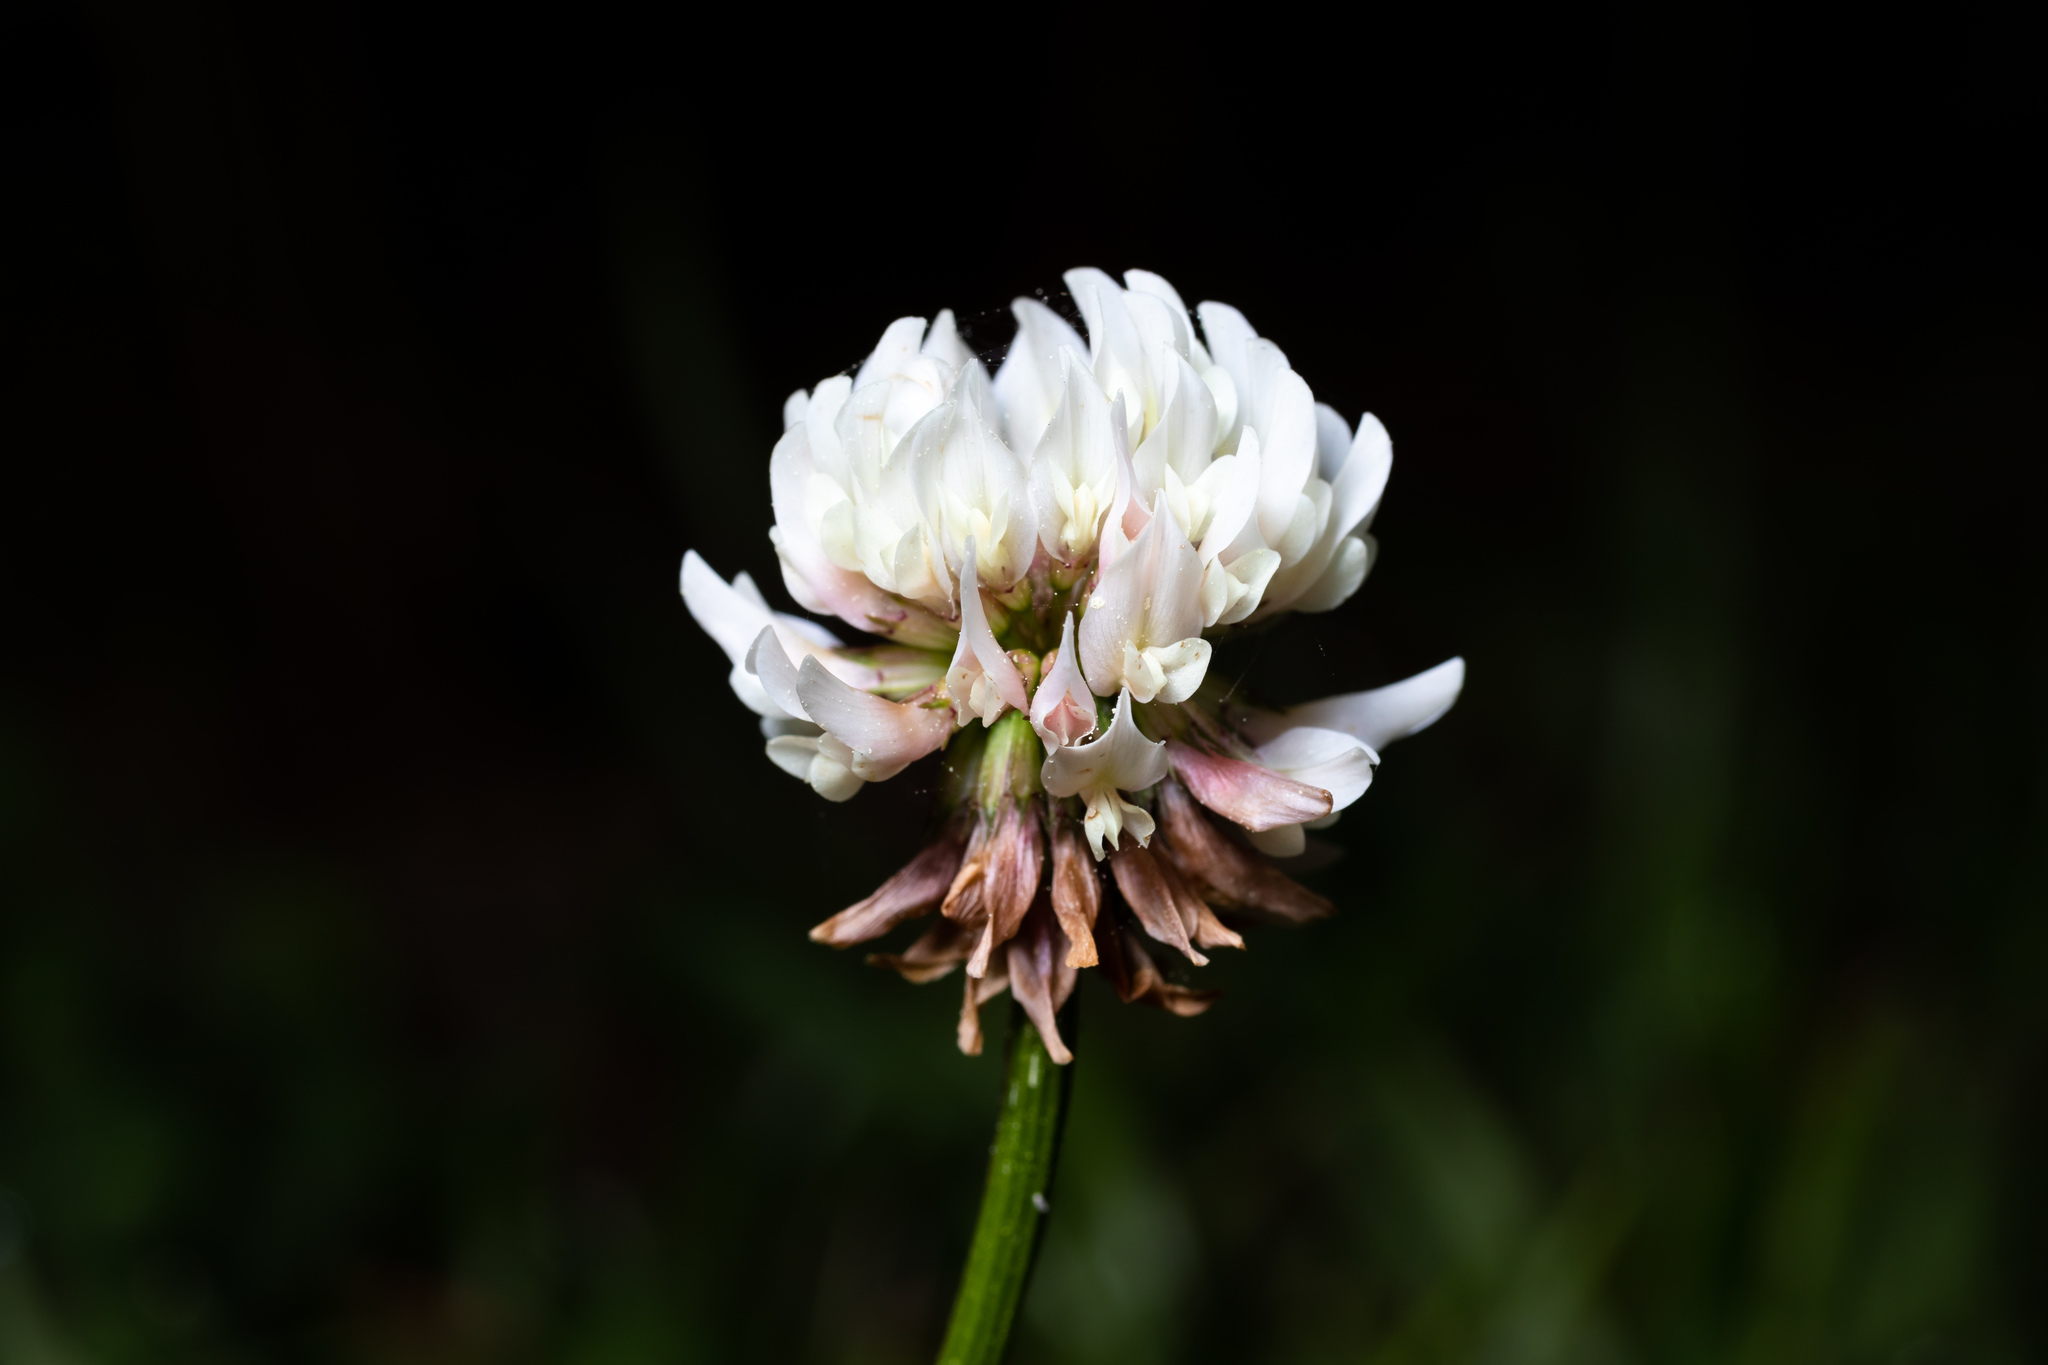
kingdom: Plantae
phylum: Tracheophyta
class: Magnoliopsida
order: Fabales
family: Fabaceae
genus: Trifolium
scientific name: Trifolium repens
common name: White clover
